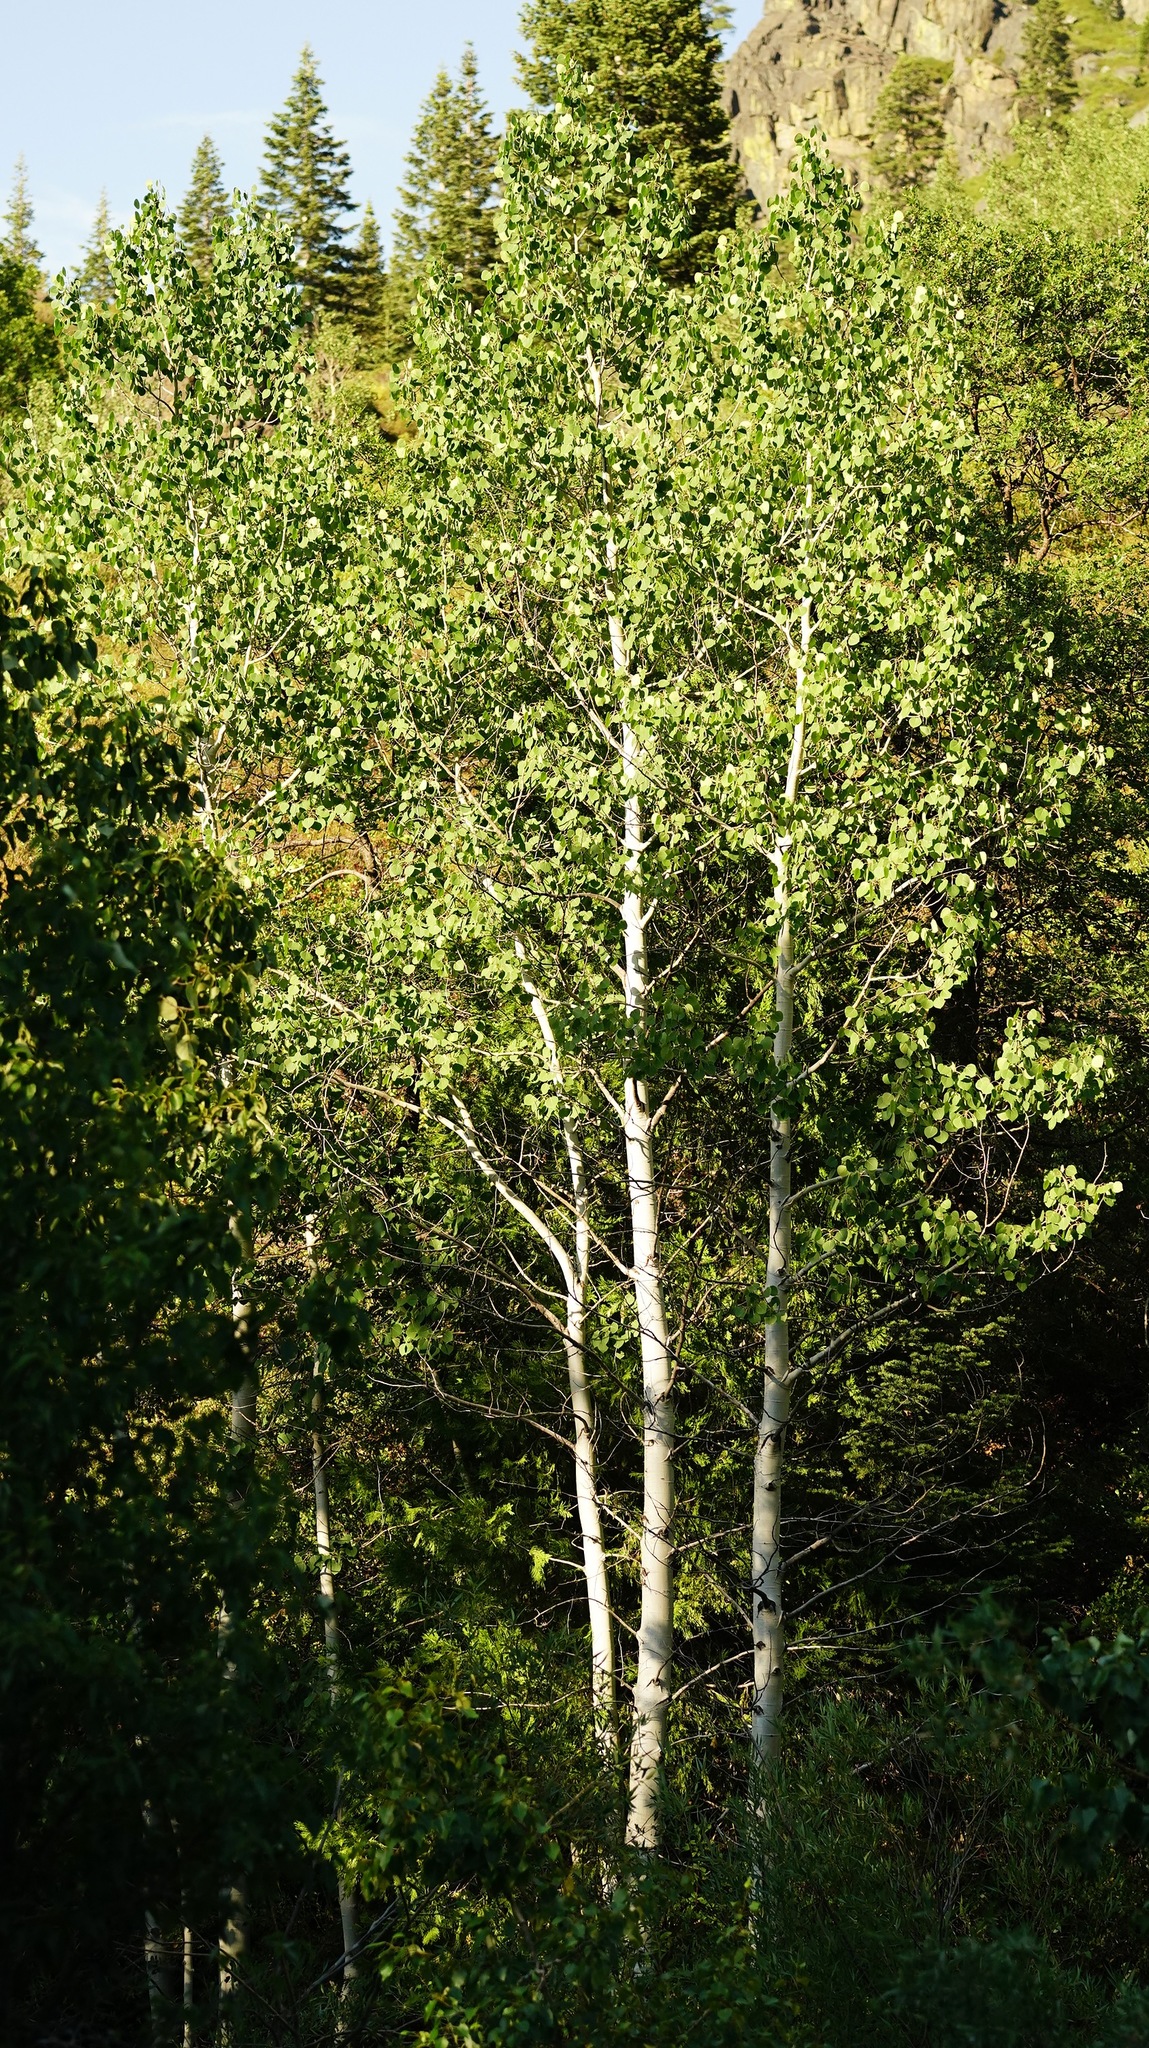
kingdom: Plantae
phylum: Tracheophyta
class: Magnoliopsida
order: Malpighiales
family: Salicaceae
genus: Populus
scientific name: Populus tremuloides
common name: Quaking aspen
